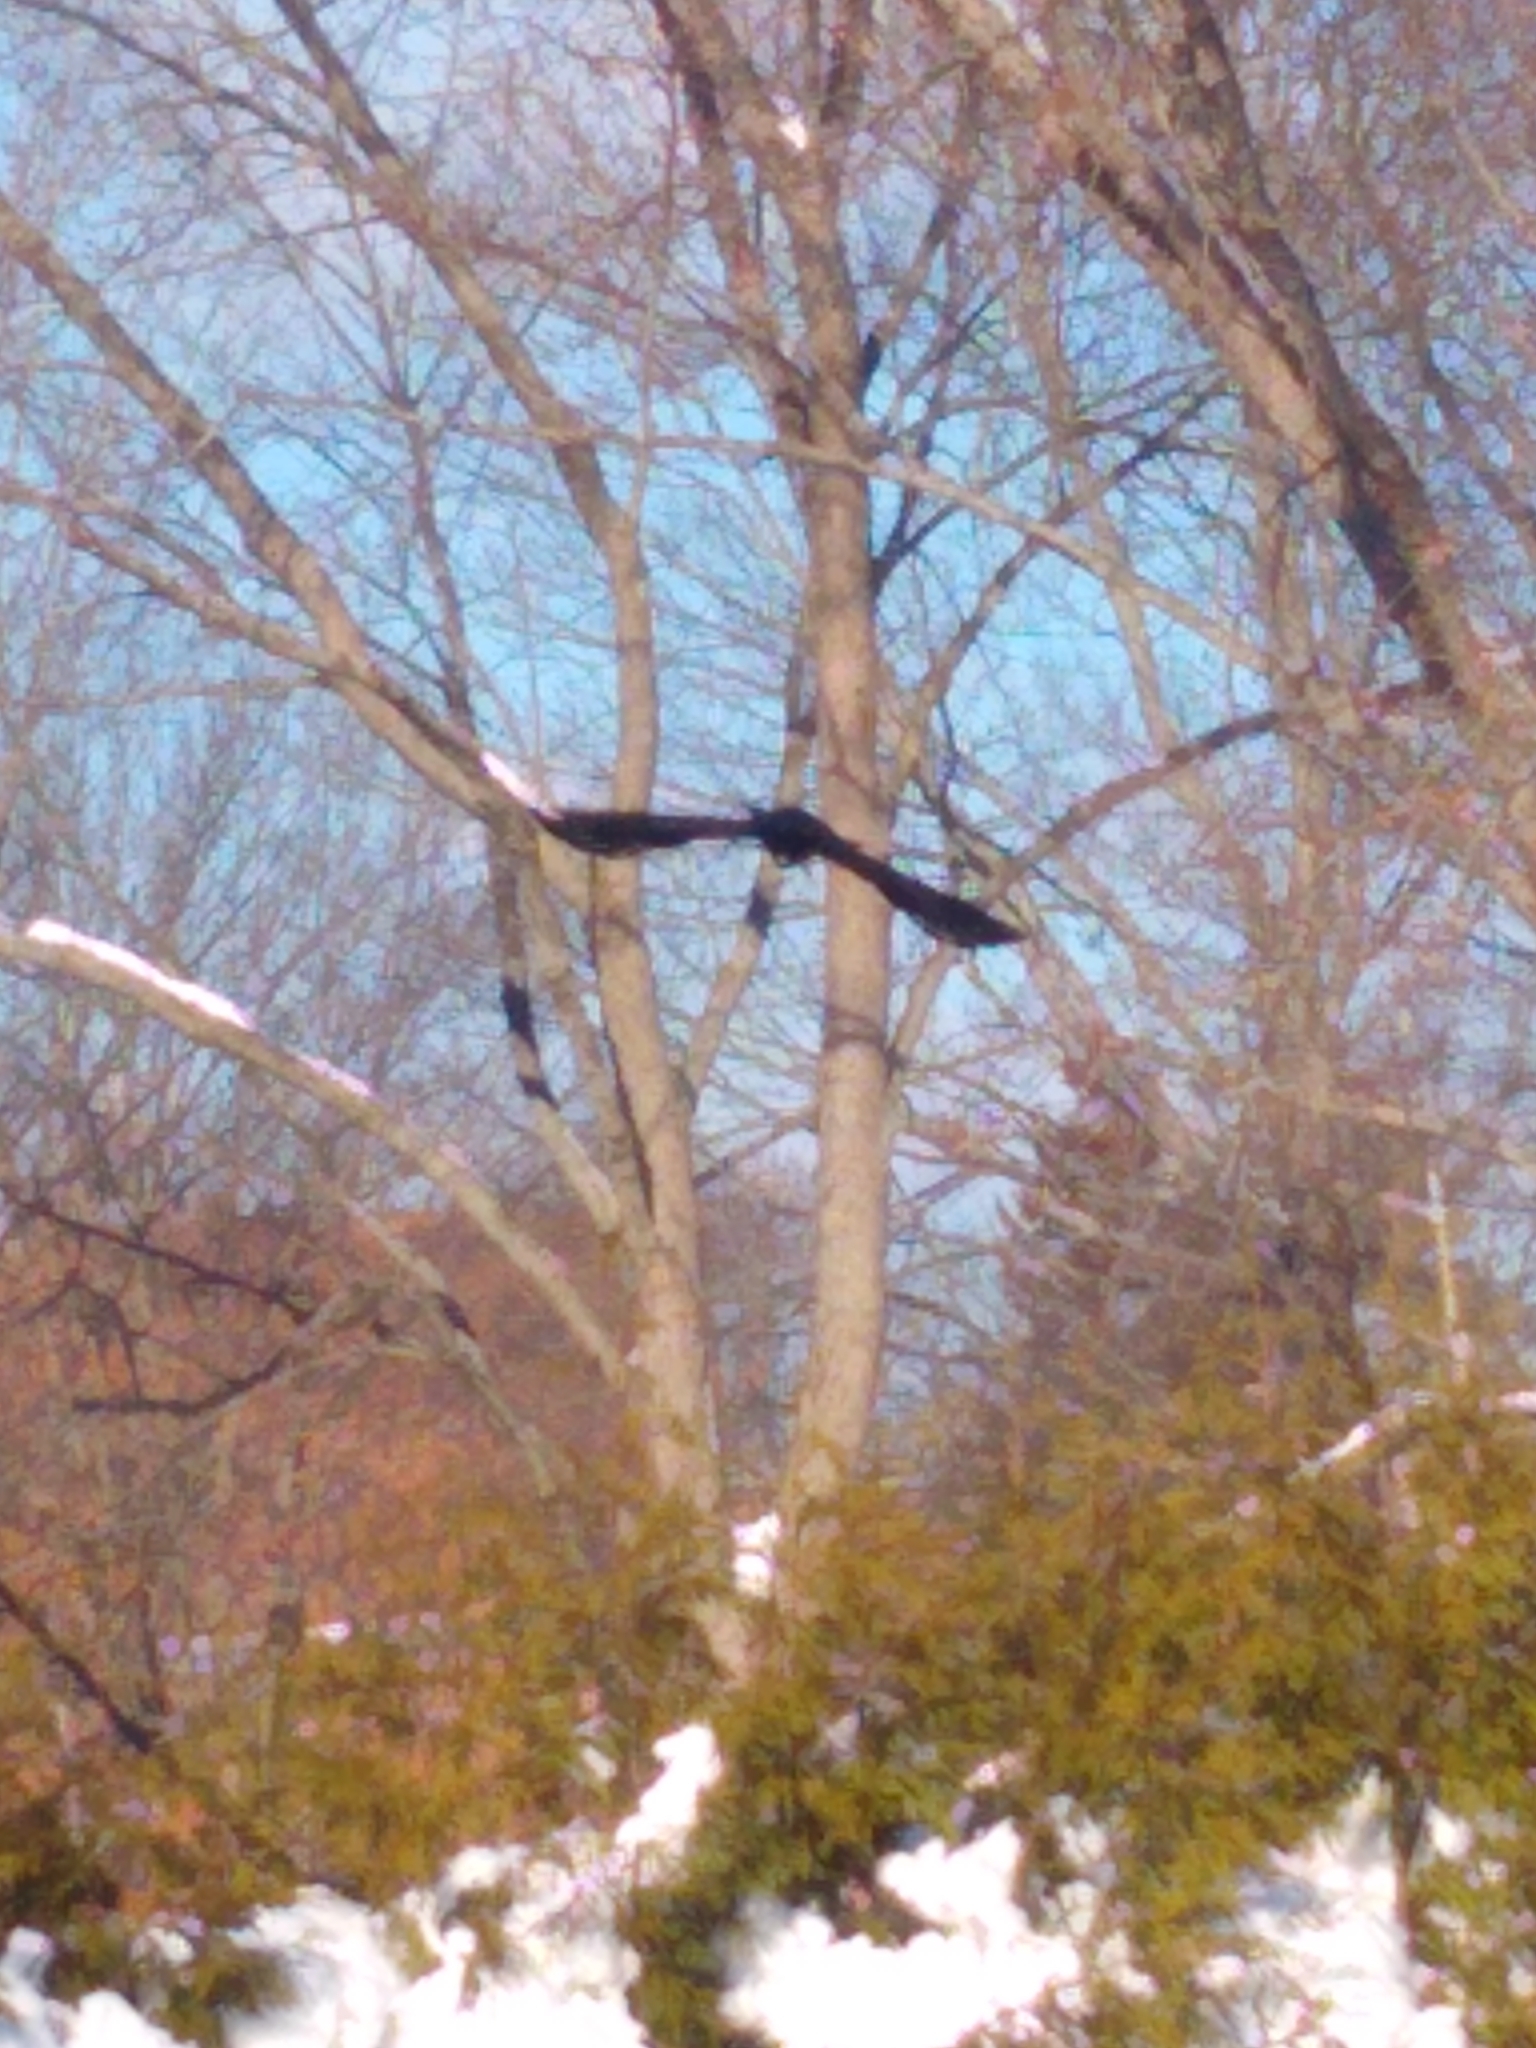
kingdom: Animalia
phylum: Chordata
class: Aves
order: Passeriformes
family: Corvidae
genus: Corvus
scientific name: Corvus brachyrhynchos
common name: American crow
